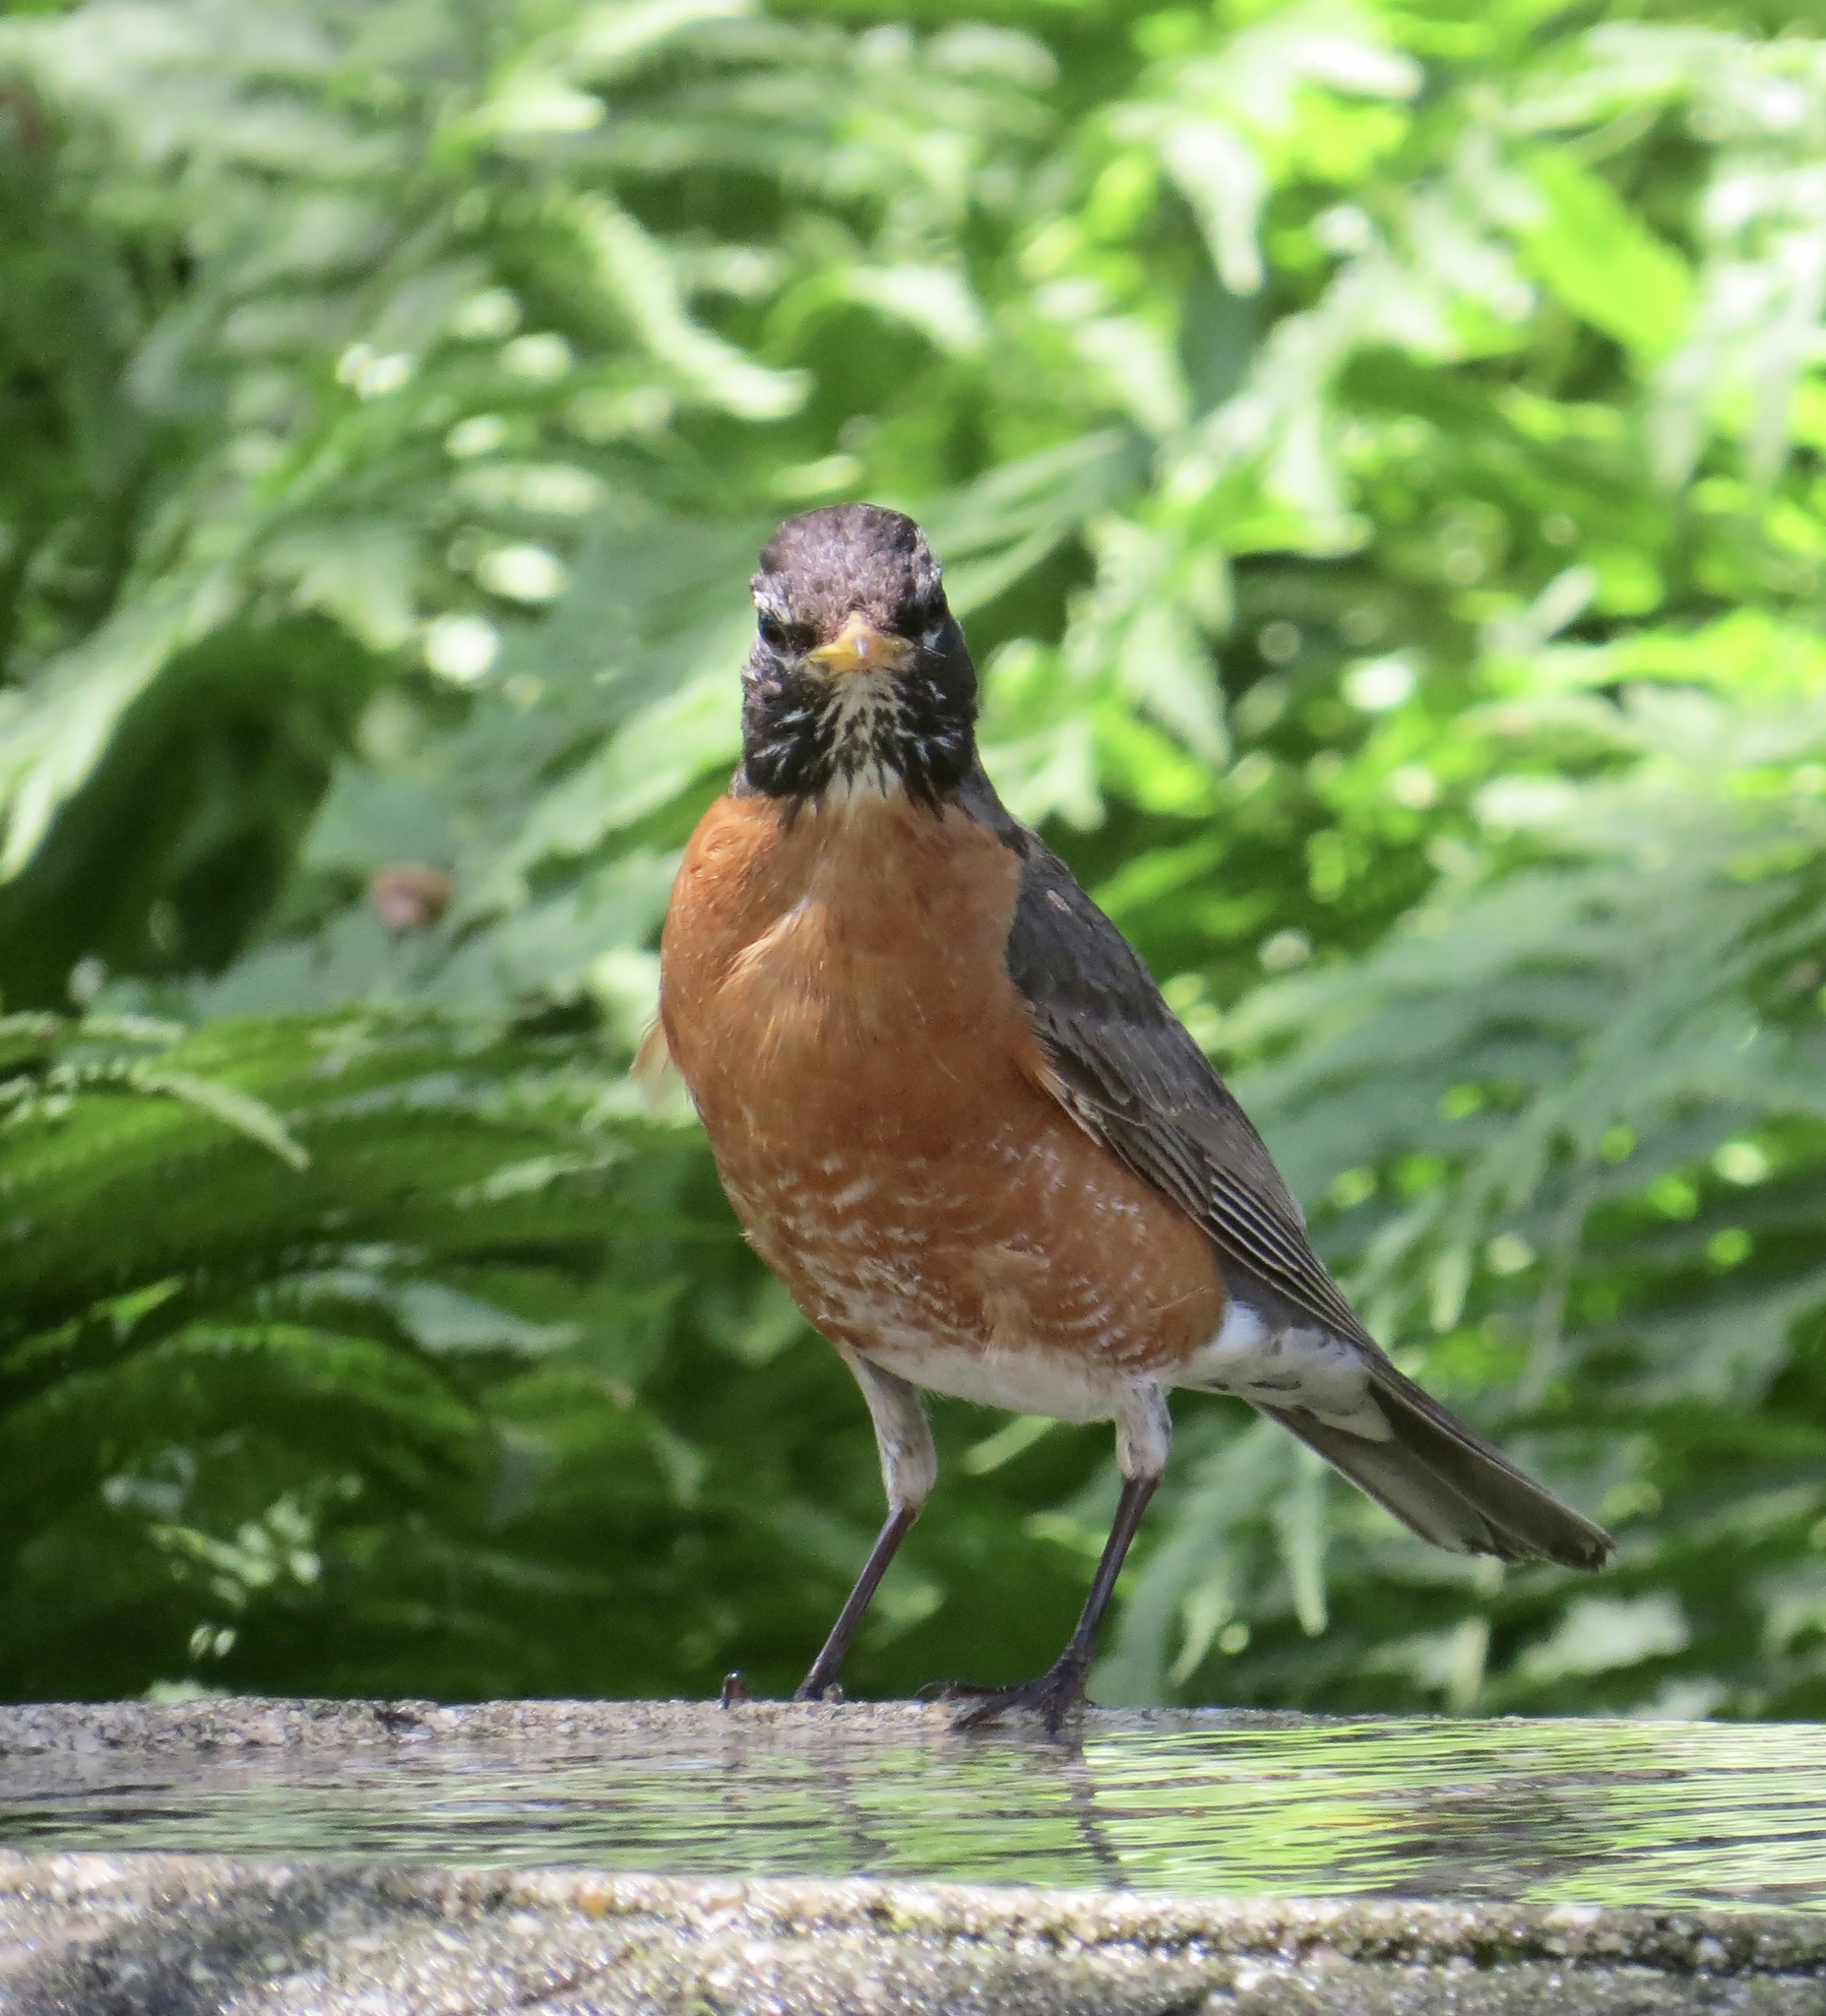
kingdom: Animalia
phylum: Chordata
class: Aves
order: Passeriformes
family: Turdidae
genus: Turdus
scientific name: Turdus migratorius
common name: American robin
